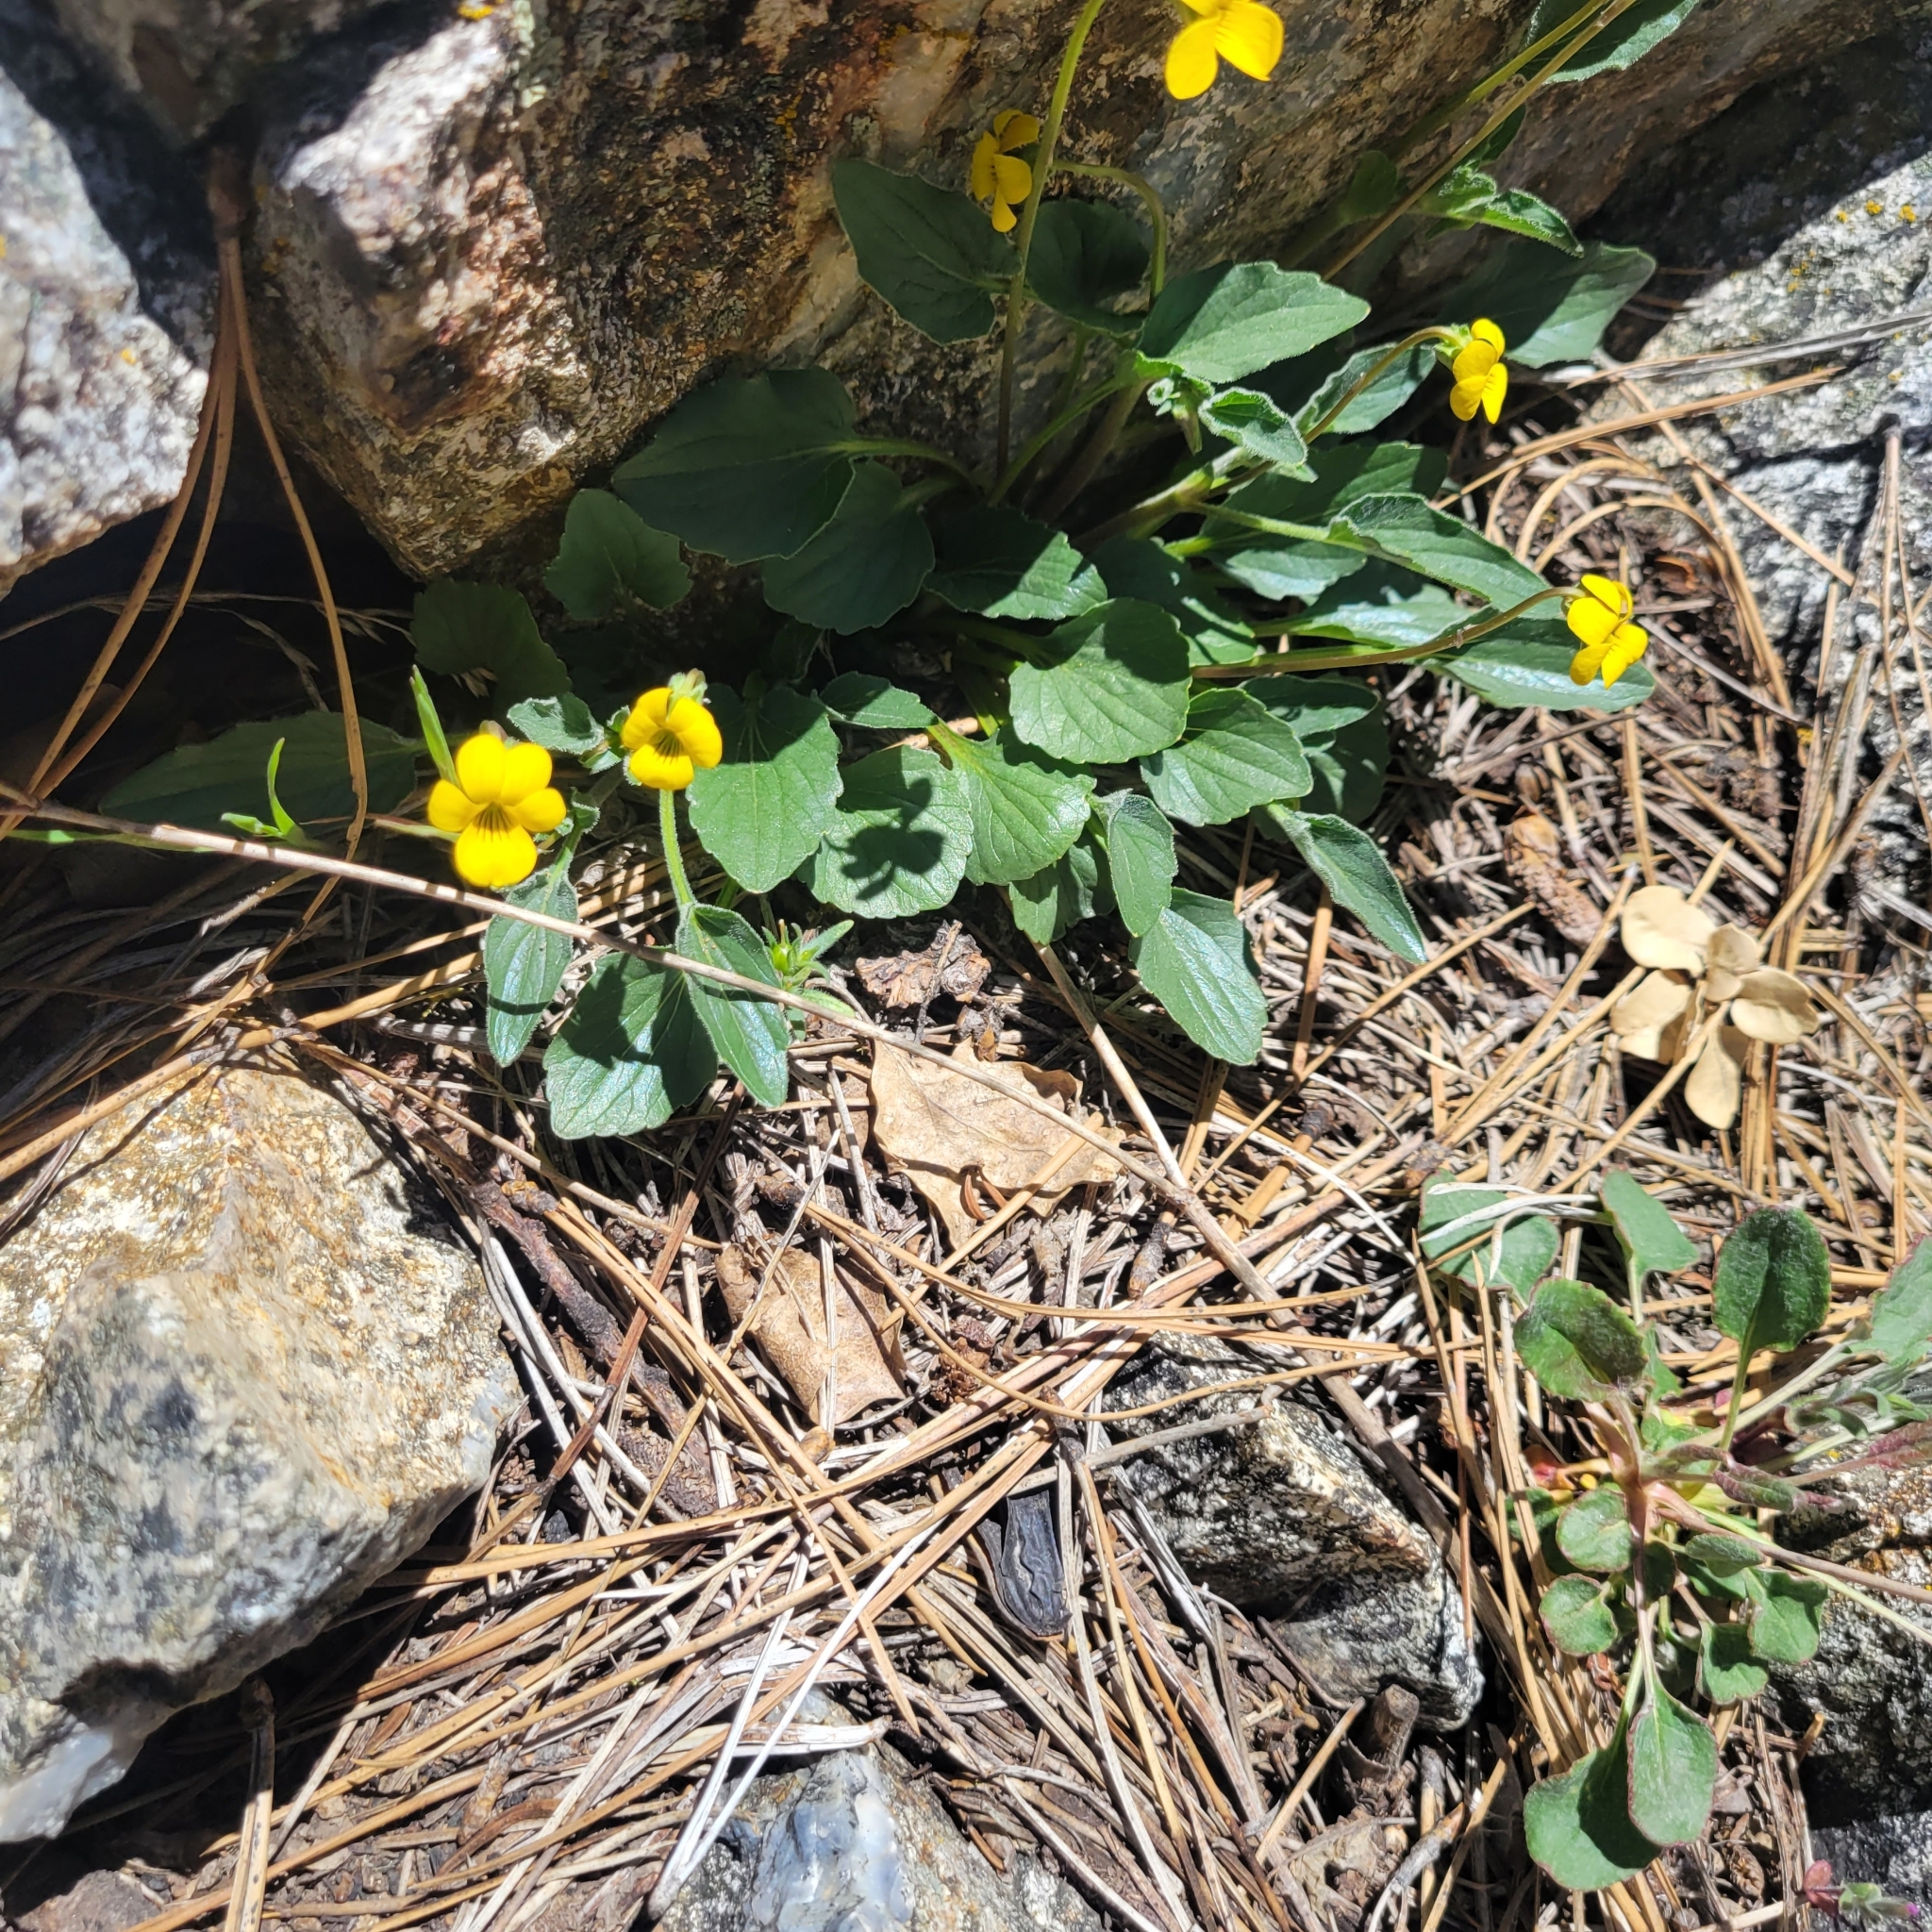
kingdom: Plantae
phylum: Tracheophyta
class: Magnoliopsida
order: Malpighiales
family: Violaceae
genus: Viola
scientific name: Viola purpurea
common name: Pine violet
